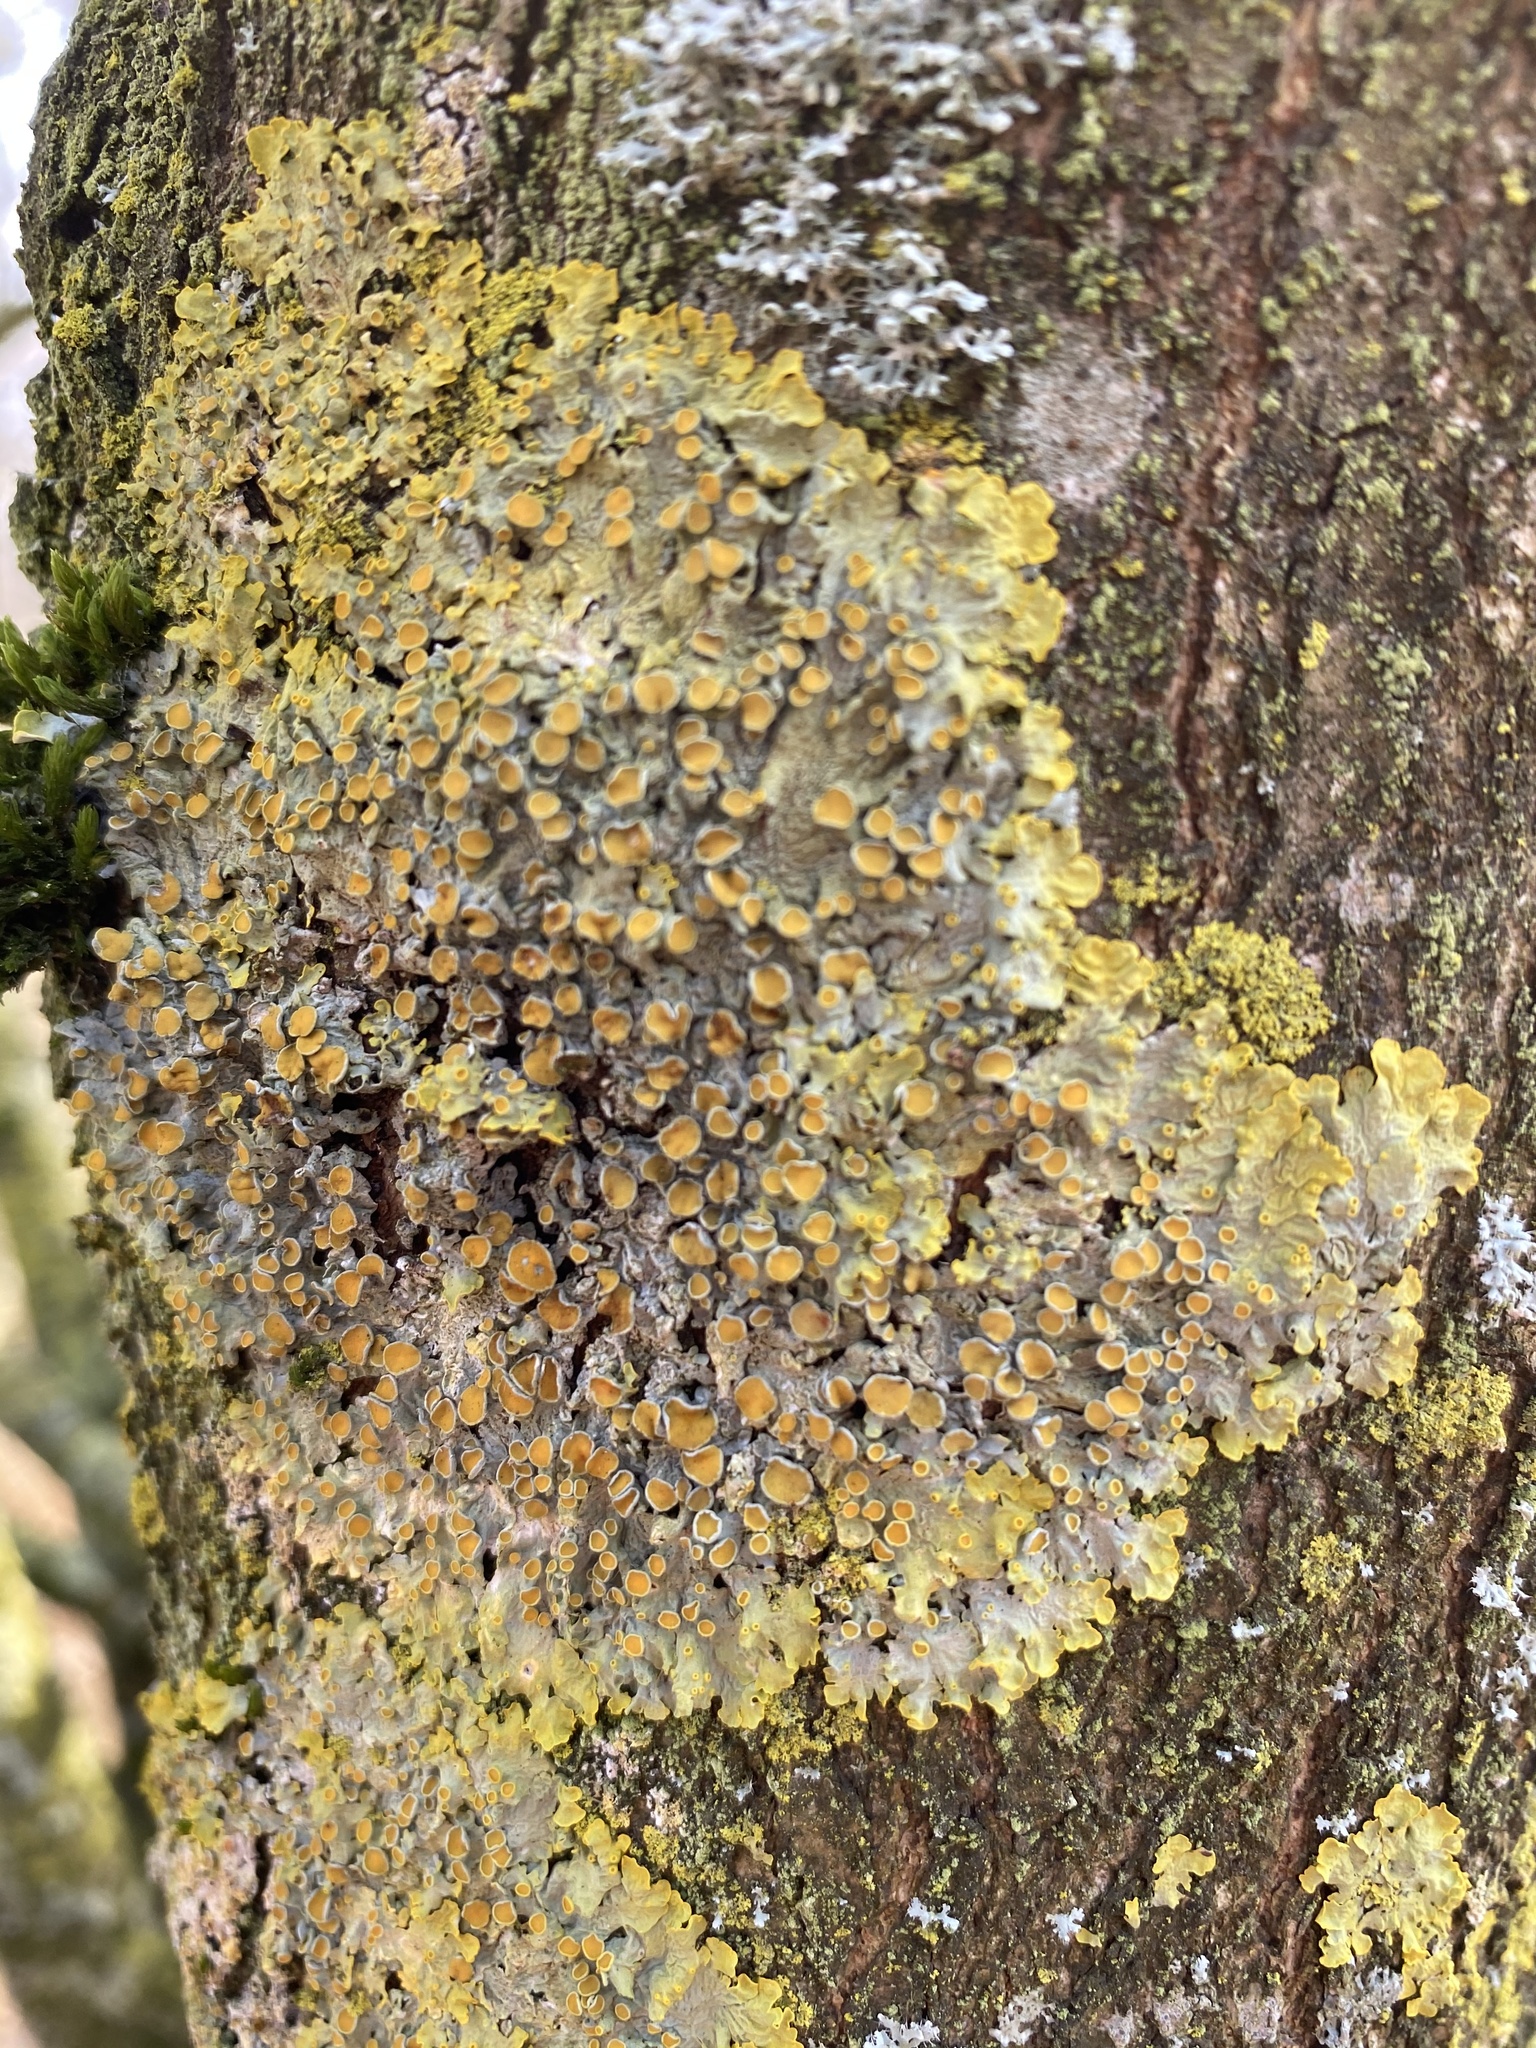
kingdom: Fungi
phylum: Ascomycota
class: Lecanoromycetes
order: Teloschistales
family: Teloschistaceae
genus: Xanthoria
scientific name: Xanthoria parietina
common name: Common orange lichen
